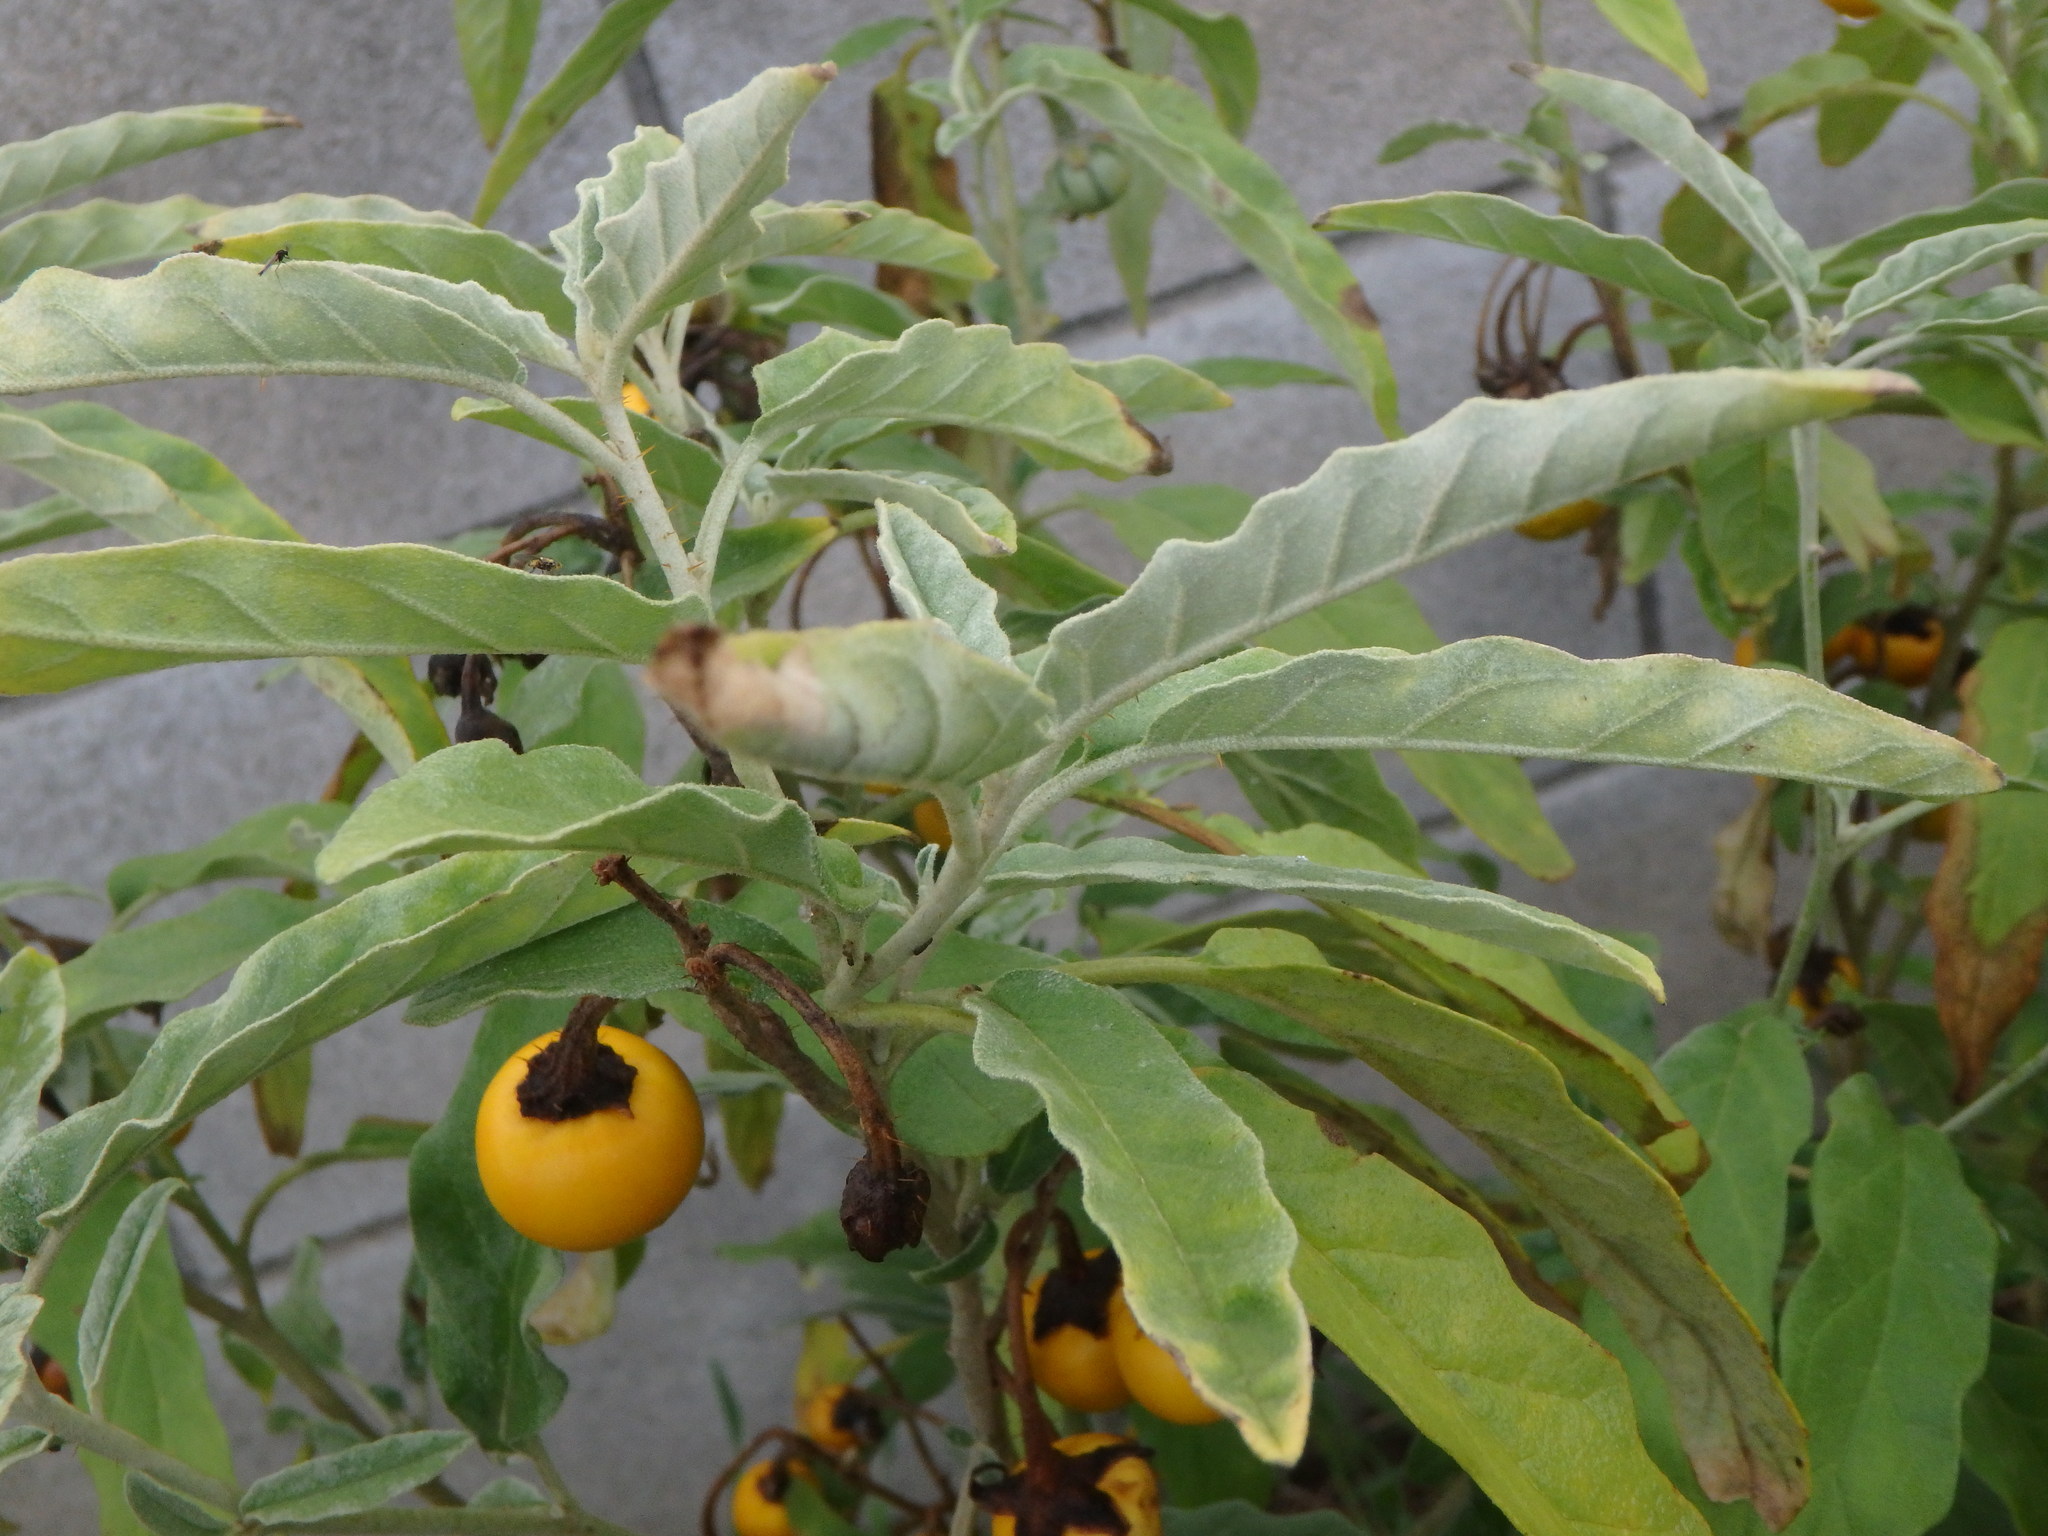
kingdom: Plantae
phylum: Tracheophyta
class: Magnoliopsida
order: Solanales
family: Solanaceae
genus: Solanum
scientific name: Solanum elaeagnifolium
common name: Silverleaf nightshade
